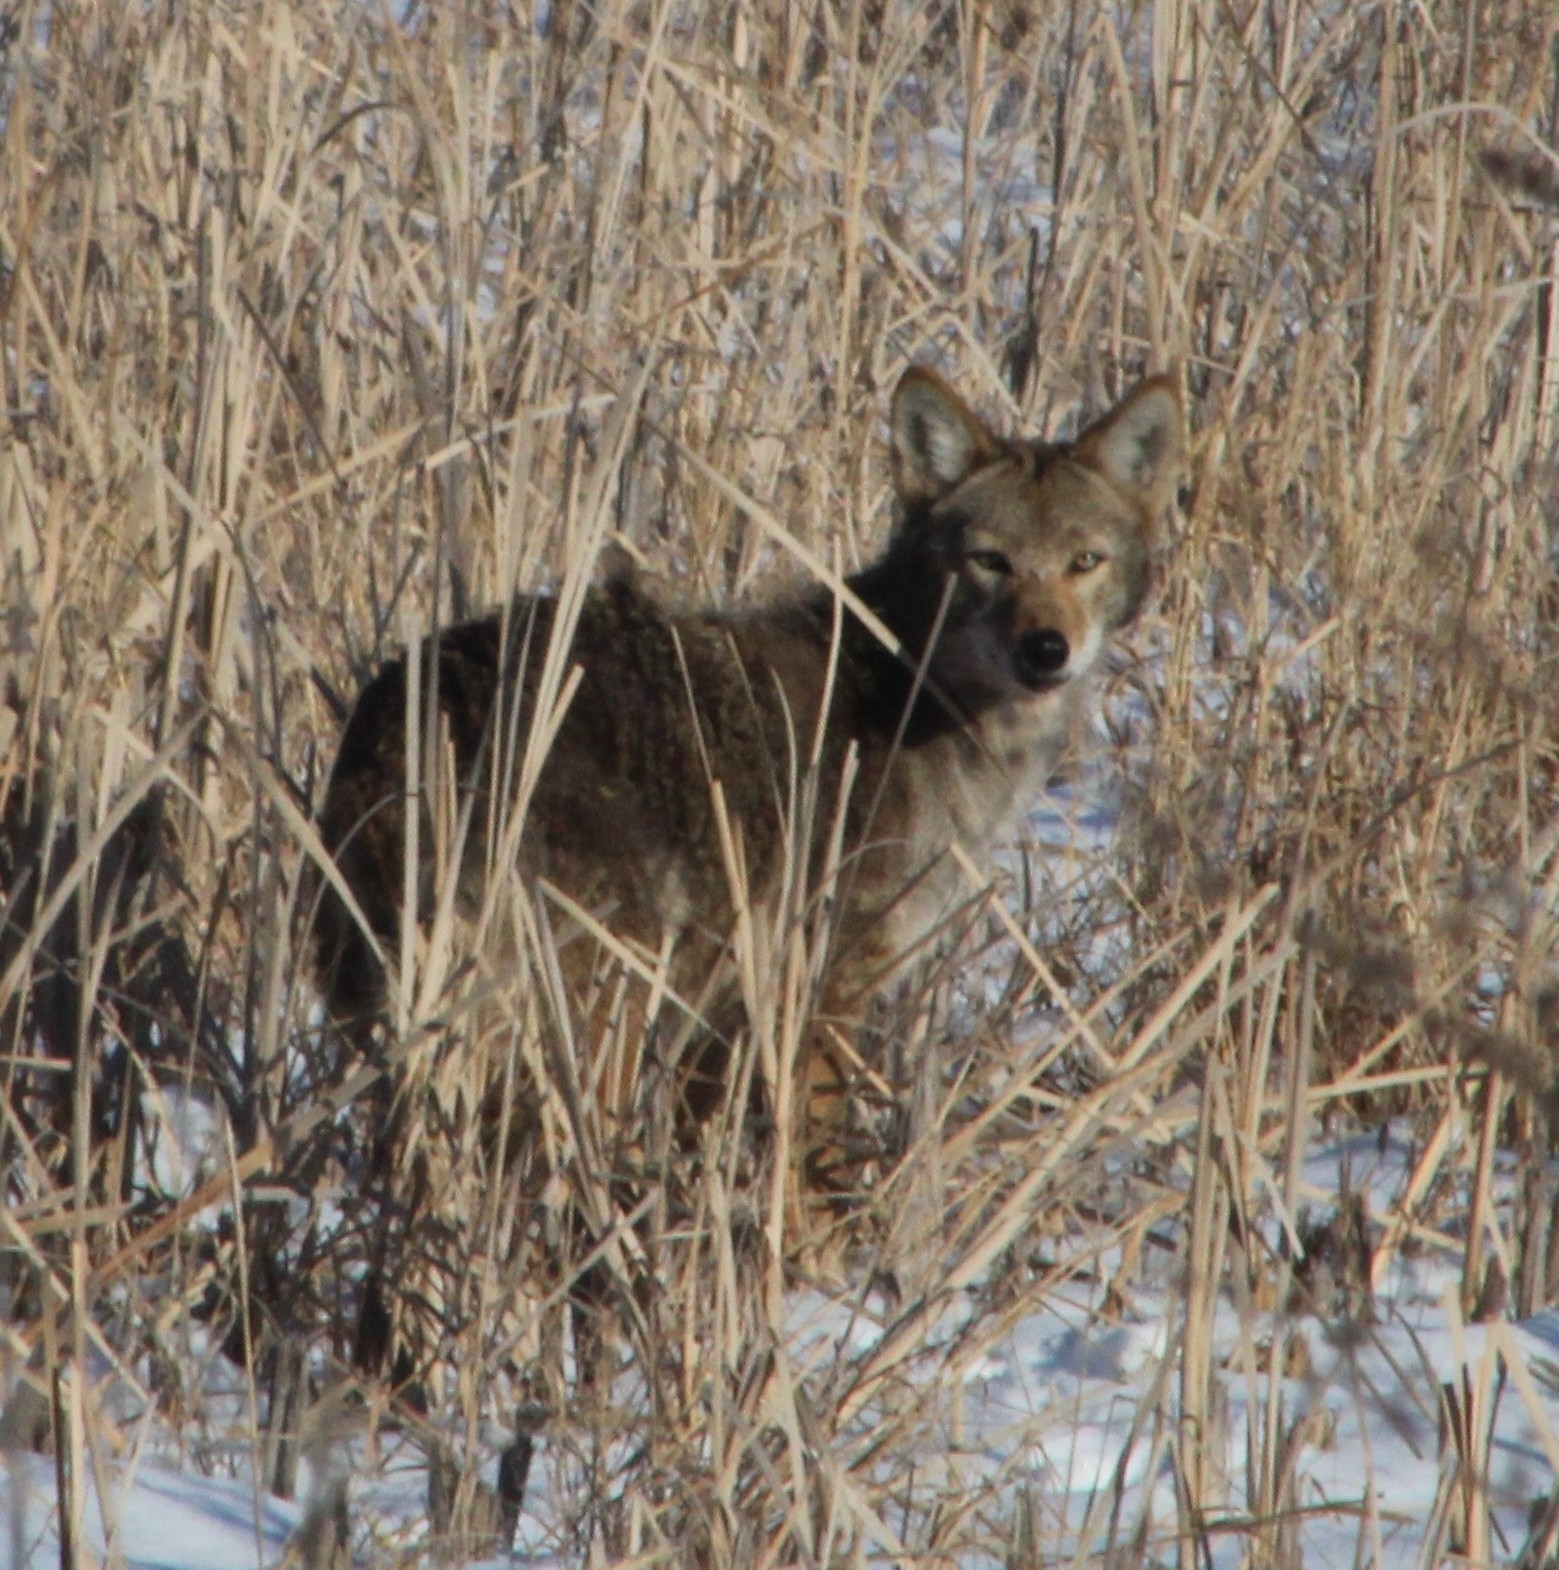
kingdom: Animalia
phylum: Chordata
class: Mammalia
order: Carnivora
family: Canidae
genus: Canis
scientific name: Canis latrans
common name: Coyote
